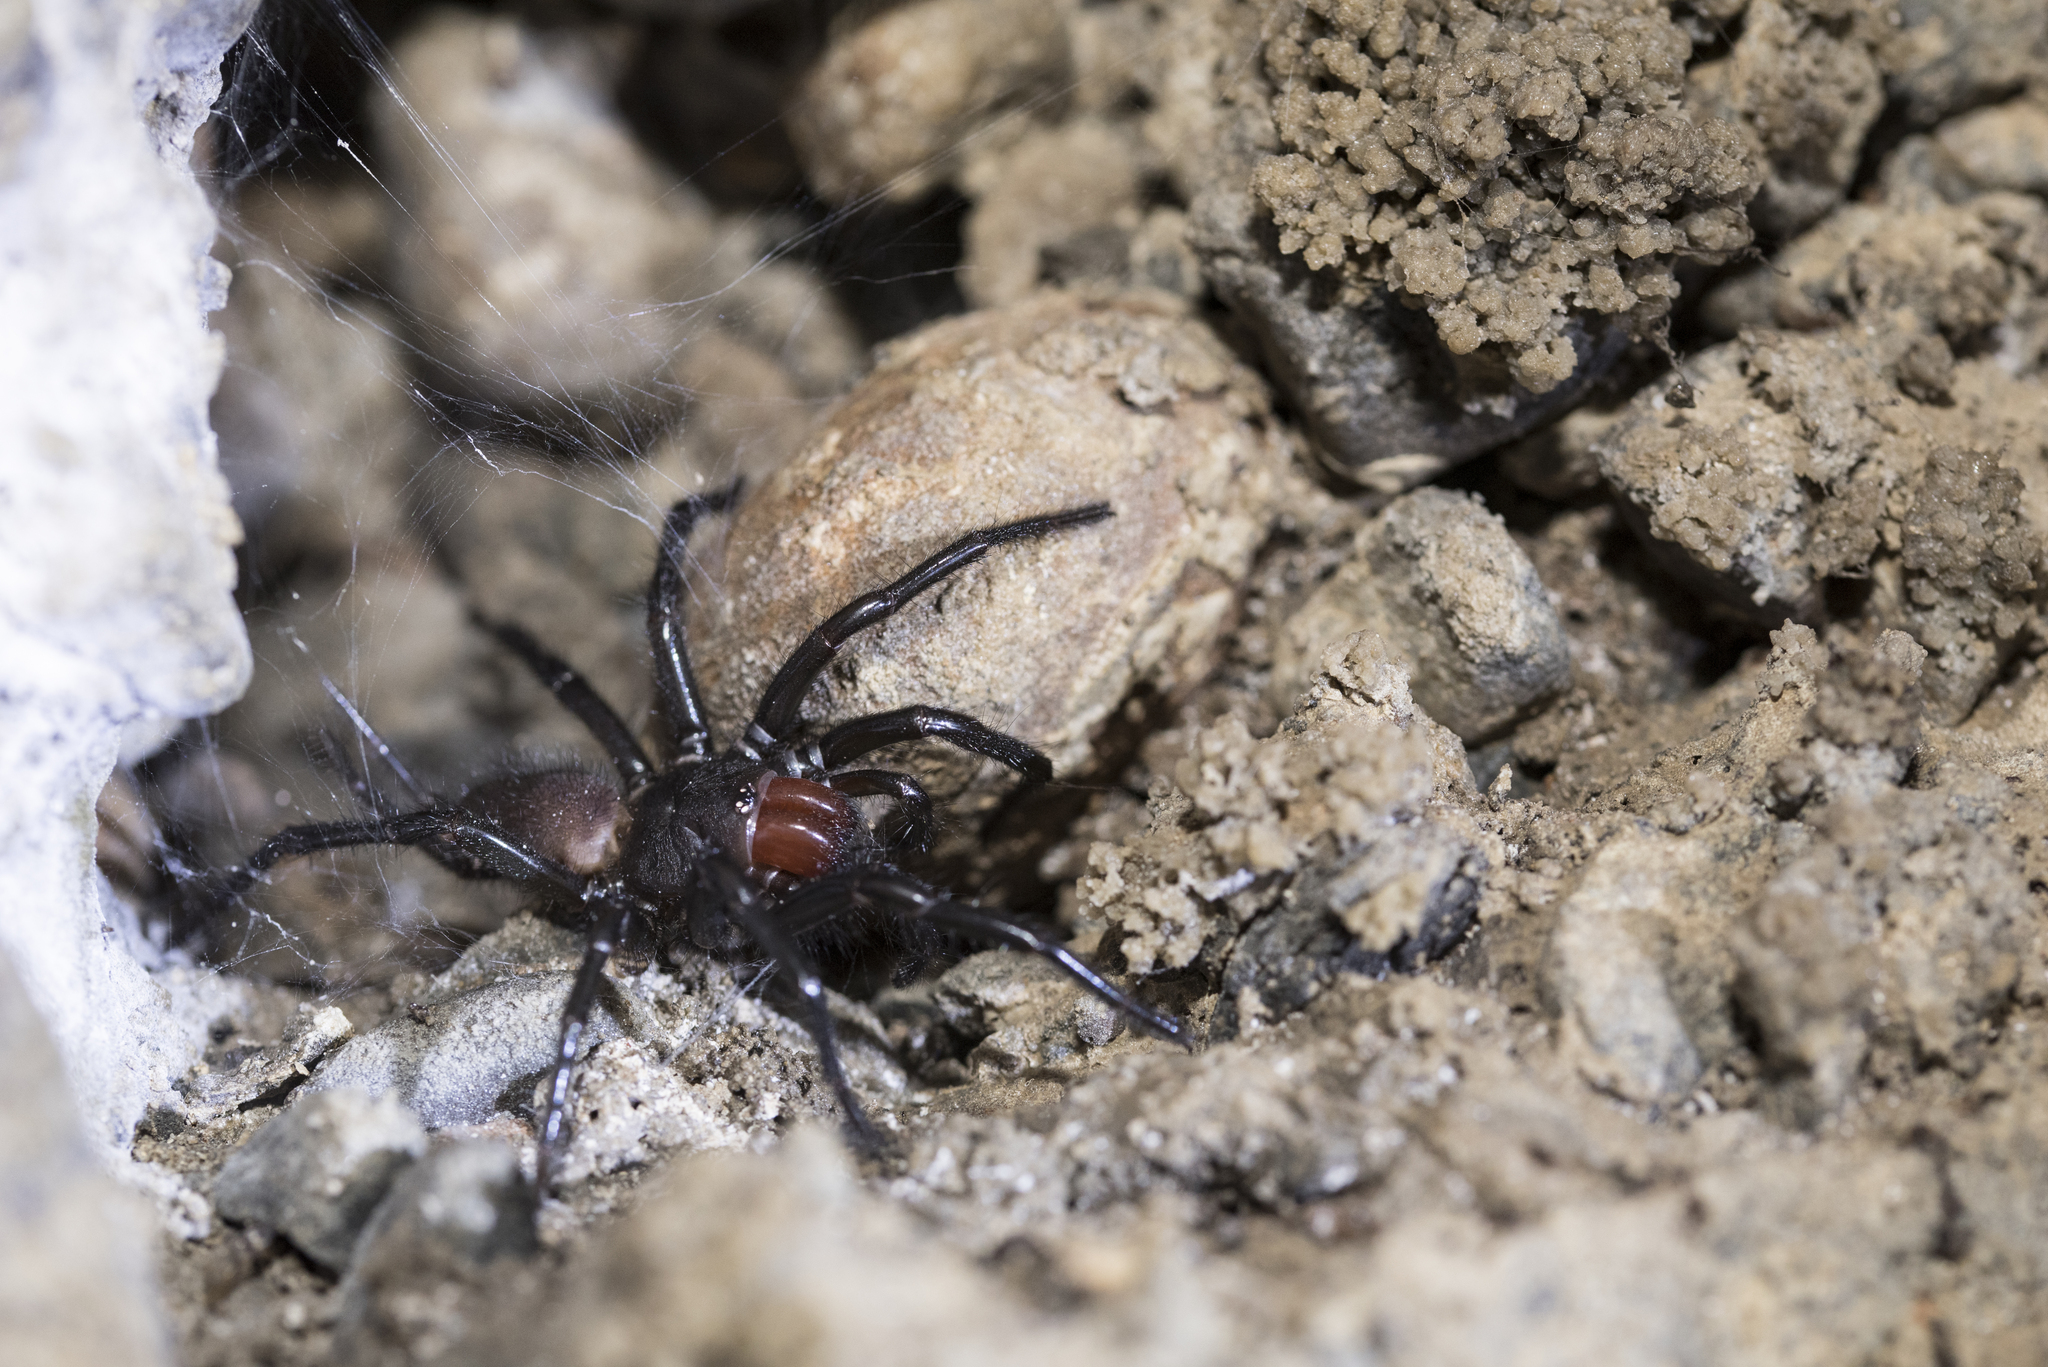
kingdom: Animalia
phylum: Arthropoda
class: Arachnida
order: Araneae
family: Macrothelidae
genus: Macrothele
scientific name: Macrothele hungae
